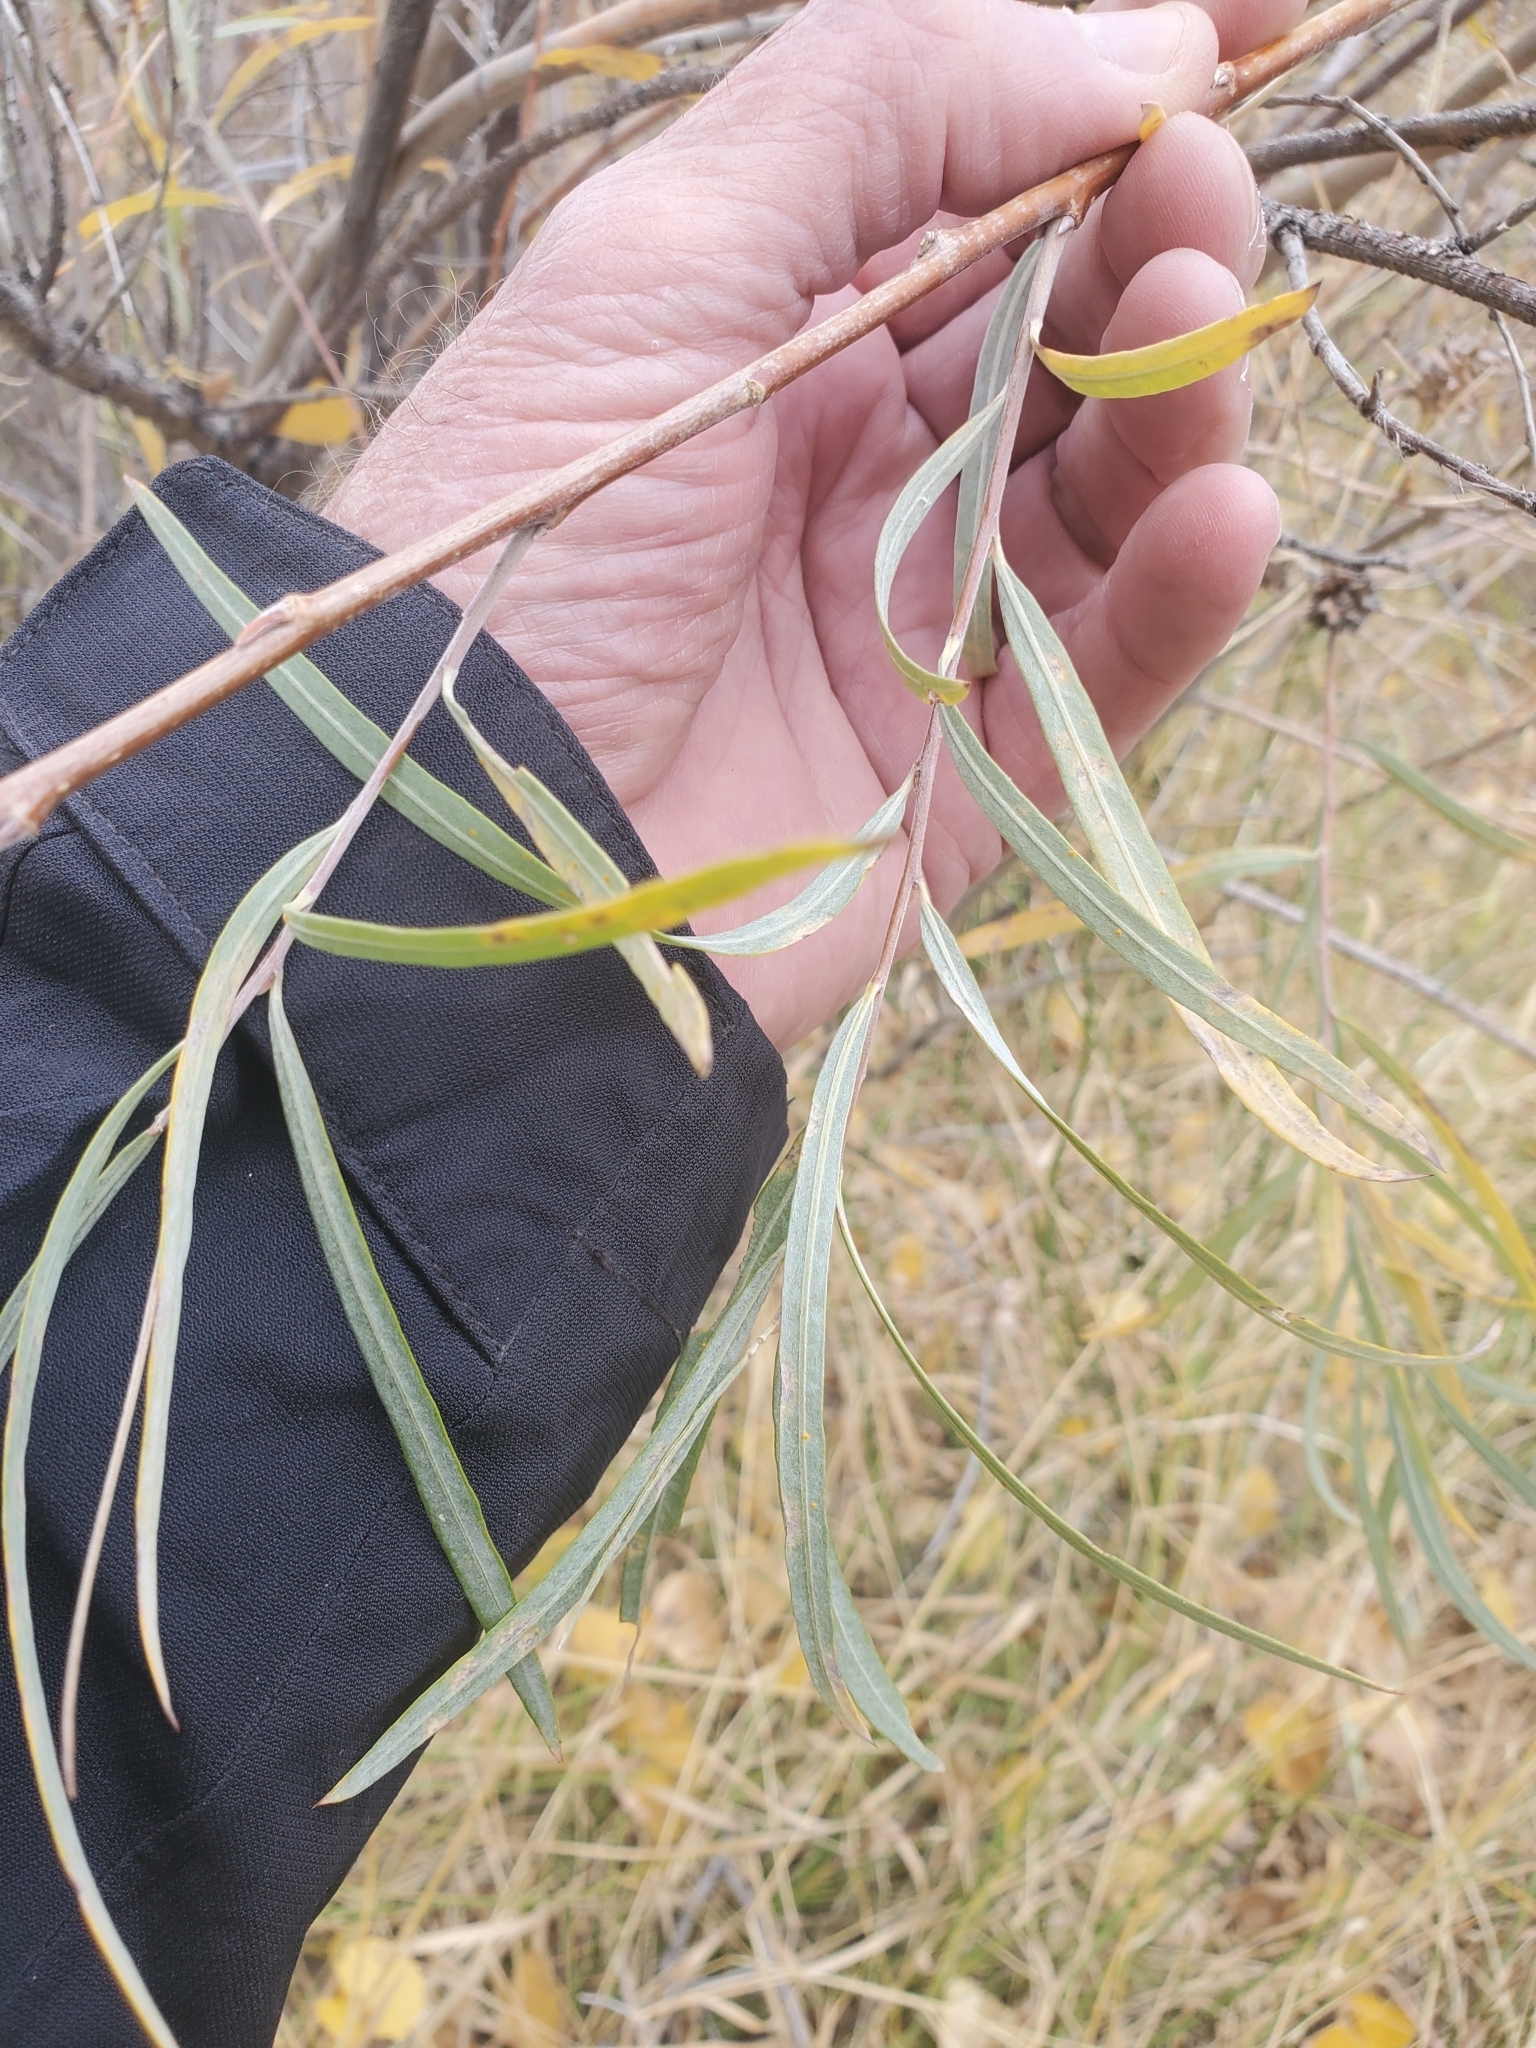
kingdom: Animalia
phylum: Arthropoda
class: Insecta
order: Diptera
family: Cecidomyiidae
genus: Rabdophaga
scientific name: Rabdophaga strobiloides
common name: Willow pinecone gall midge
